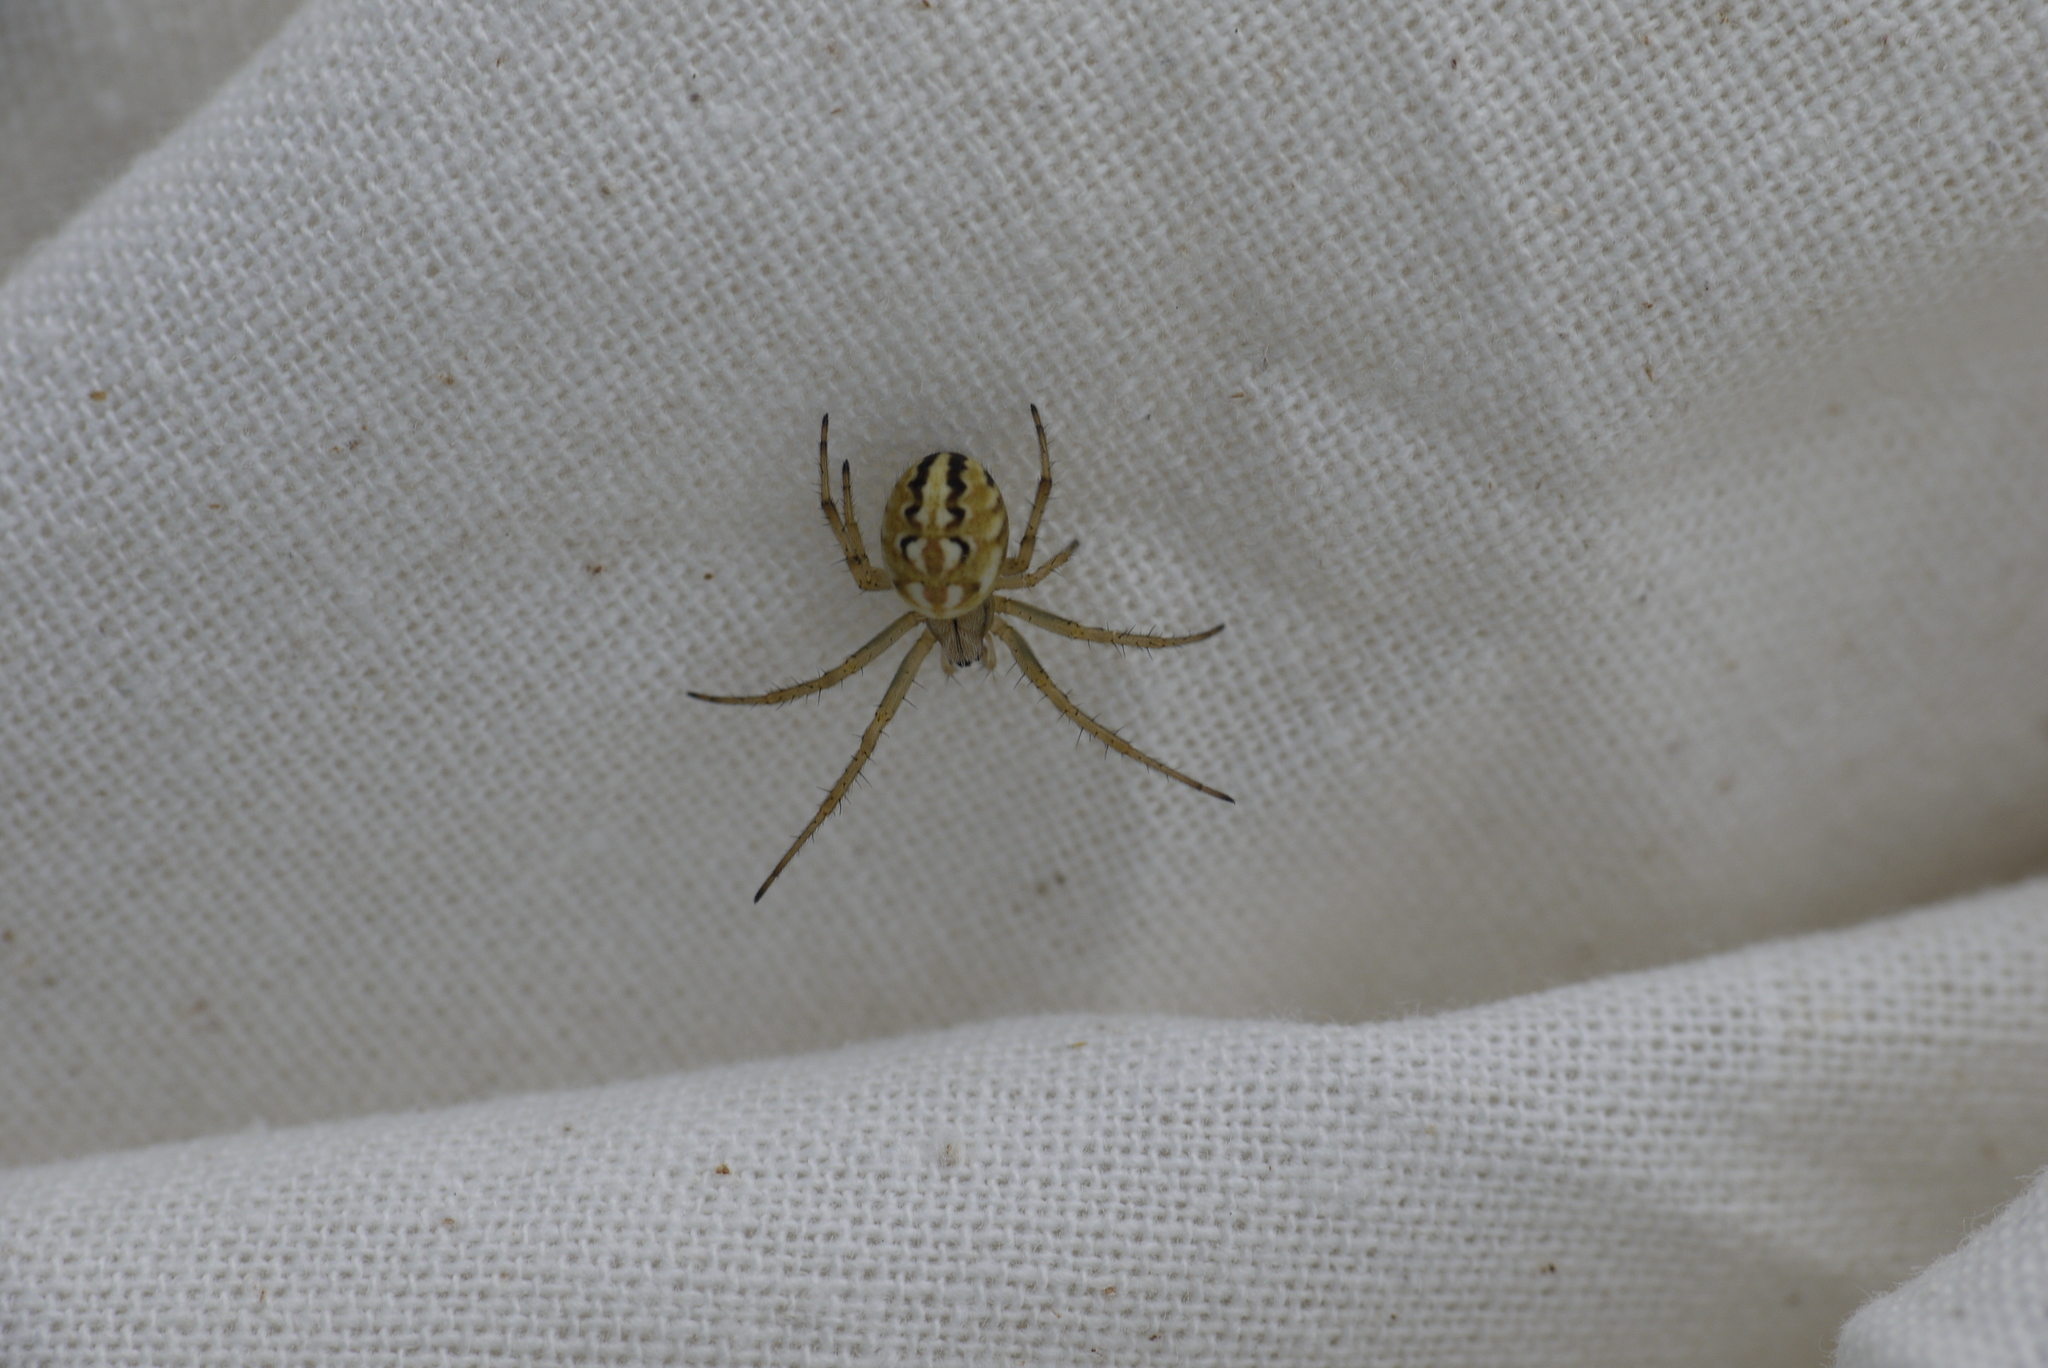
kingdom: Animalia
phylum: Arthropoda
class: Arachnida
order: Araneae
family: Araneidae
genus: Neoscona
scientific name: Neoscona adianta
